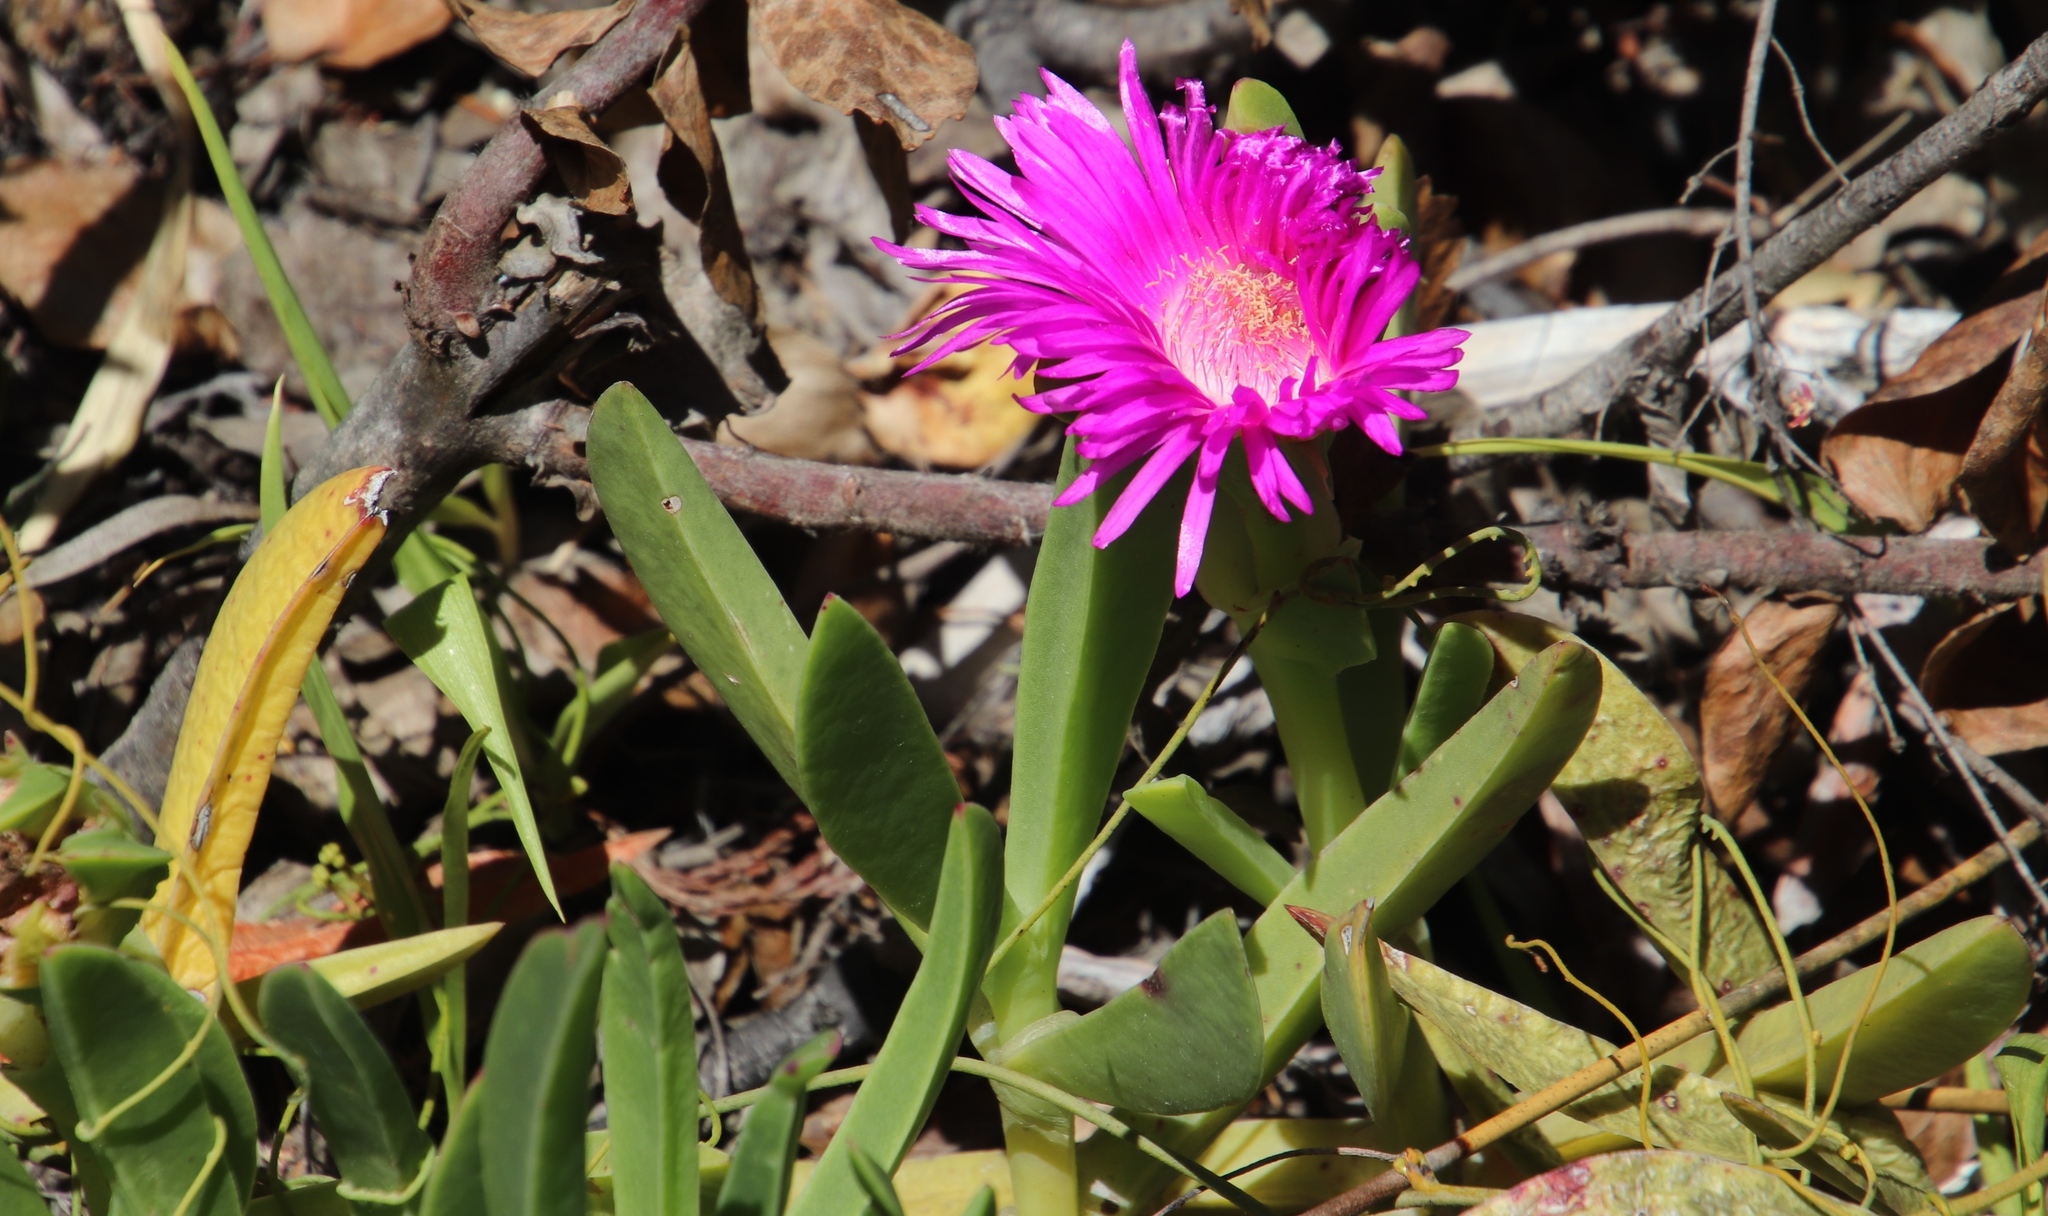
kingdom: Plantae
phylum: Tracheophyta
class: Magnoliopsida
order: Caryophyllales
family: Aizoaceae
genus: Carpobrotus
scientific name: Carpobrotus acinaciformis
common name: Sally-my-handsome
